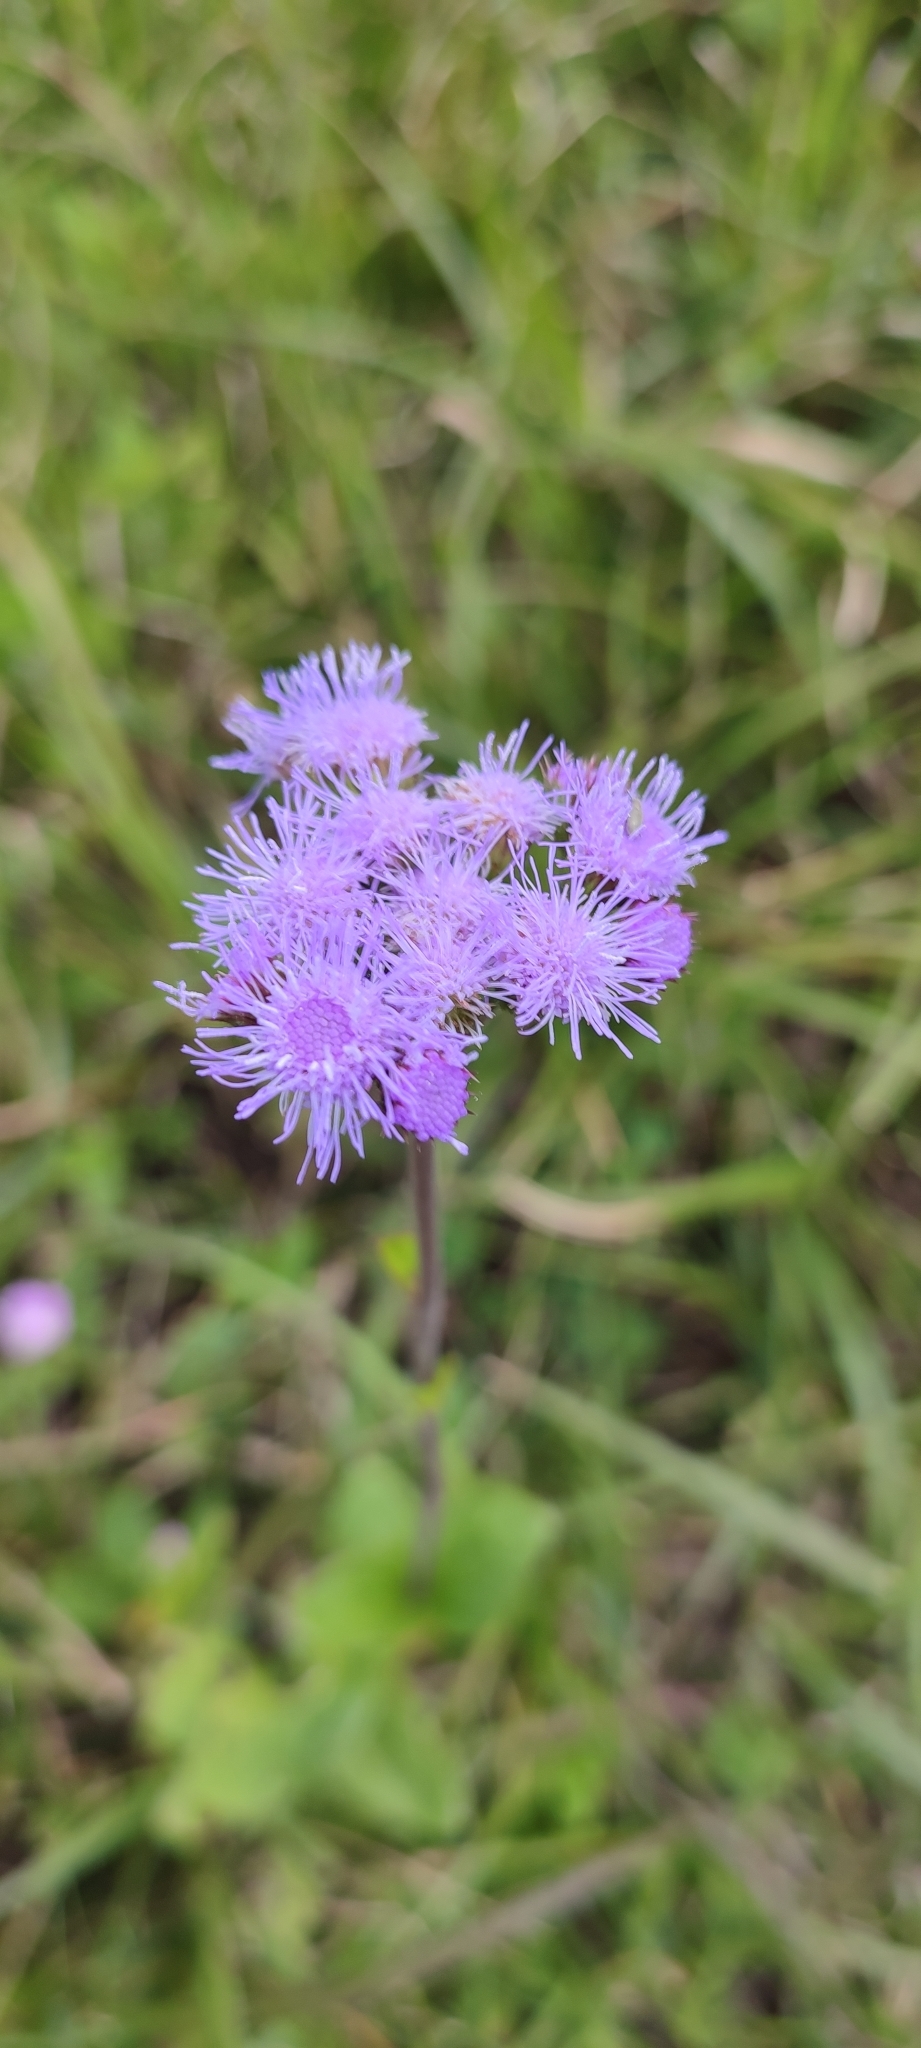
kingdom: Plantae
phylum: Tracheophyta
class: Magnoliopsida
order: Asterales
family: Asteraceae
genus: Ageratum
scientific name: Ageratum corymbosum
